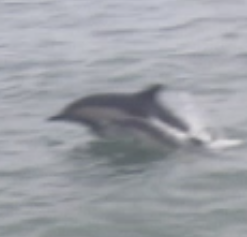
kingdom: Animalia
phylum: Chordata
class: Mammalia
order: Cetacea
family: Delphinidae
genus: Delphinus
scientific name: Delphinus delphis
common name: Common dolphin
